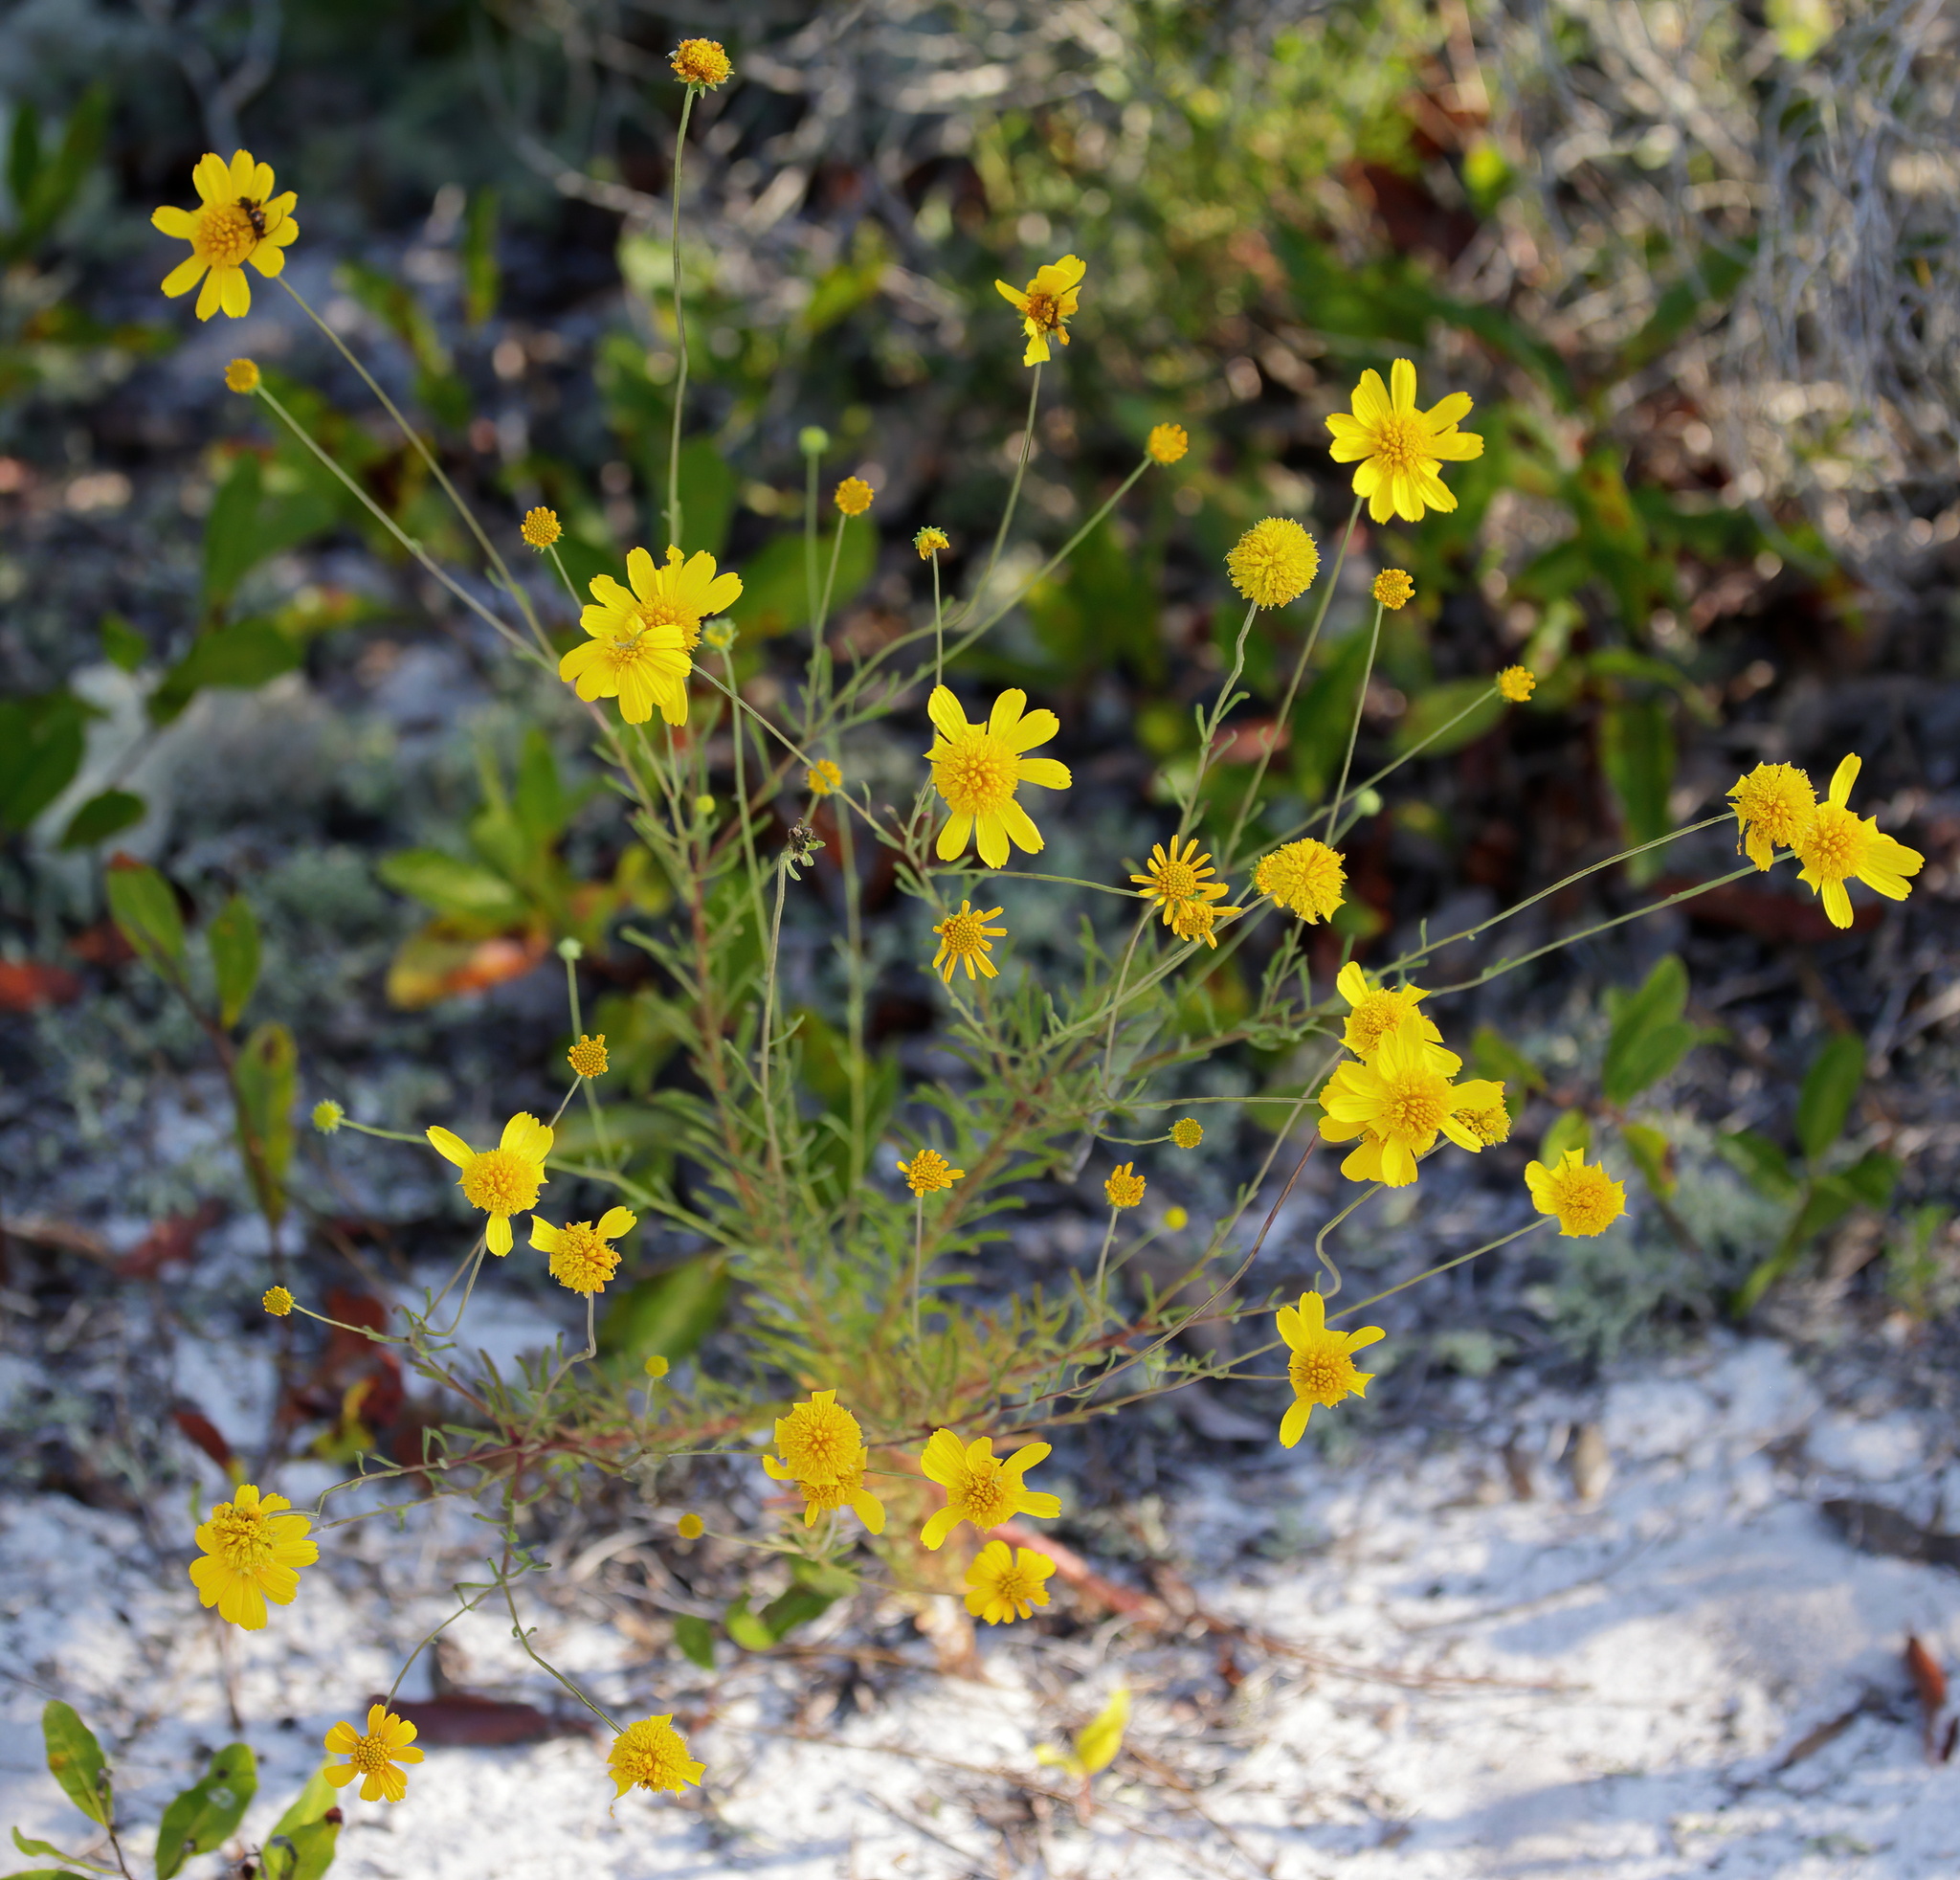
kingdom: Plantae
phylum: Tracheophyta
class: Magnoliopsida
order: Asterales
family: Asteraceae
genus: Balduina
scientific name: Balduina angustifolia
